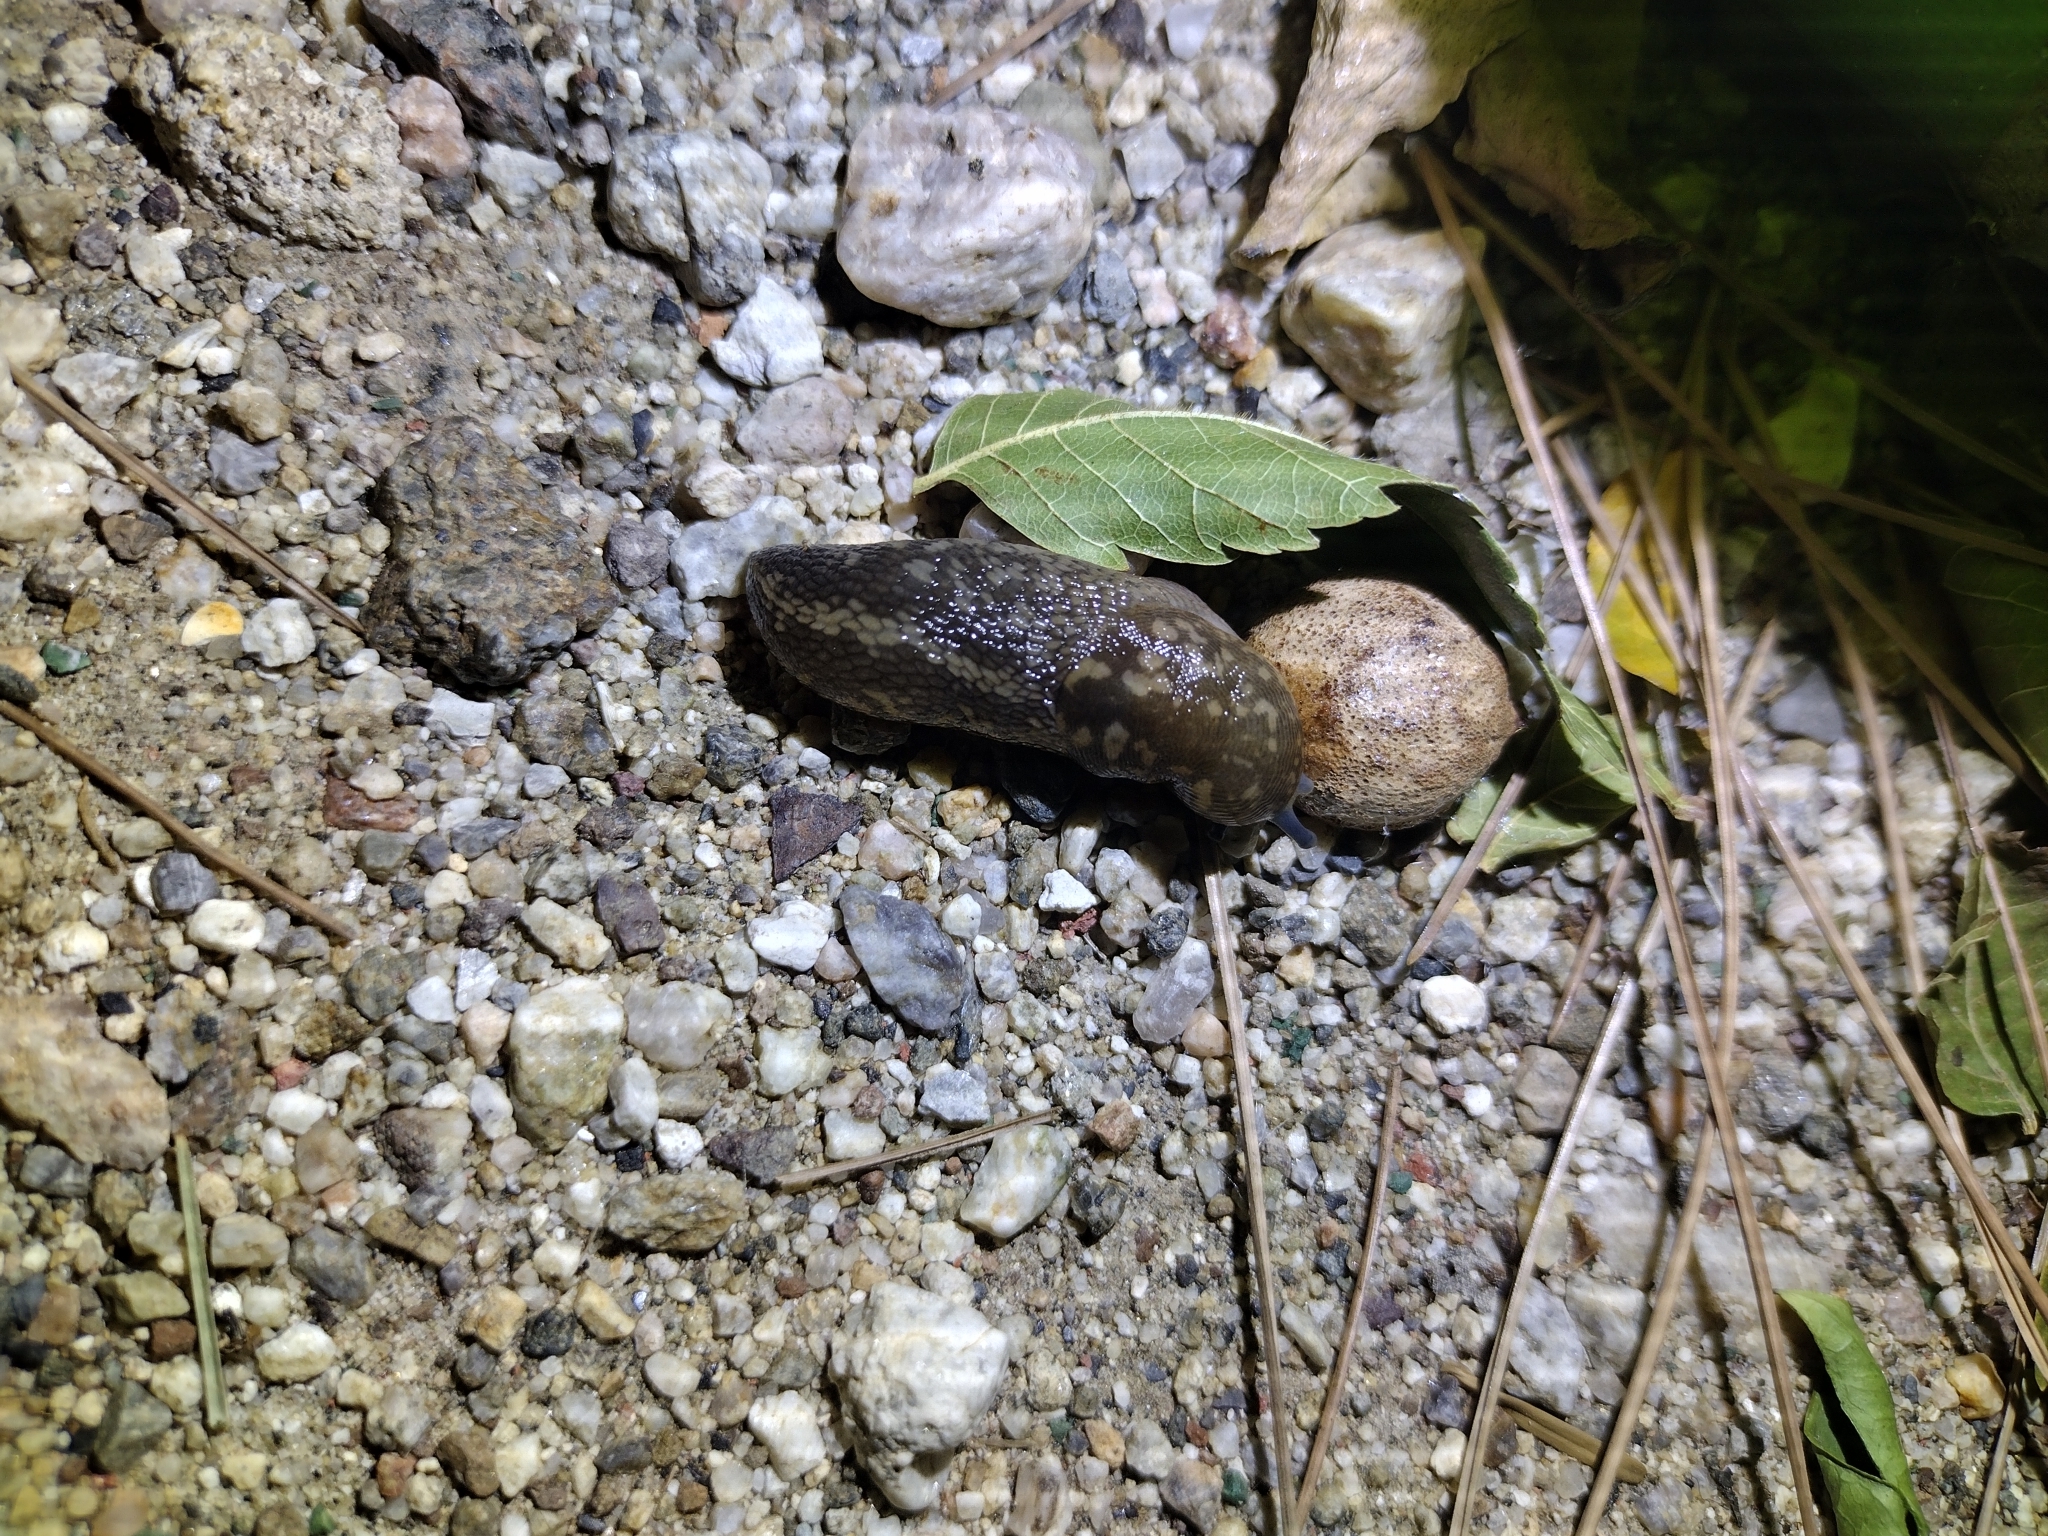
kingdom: Animalia
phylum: Mollusca
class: Gastropoda
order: Stylommatophora
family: Limacidae
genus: Limacus
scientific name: Limacus flavus
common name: Yellow gardenslug
